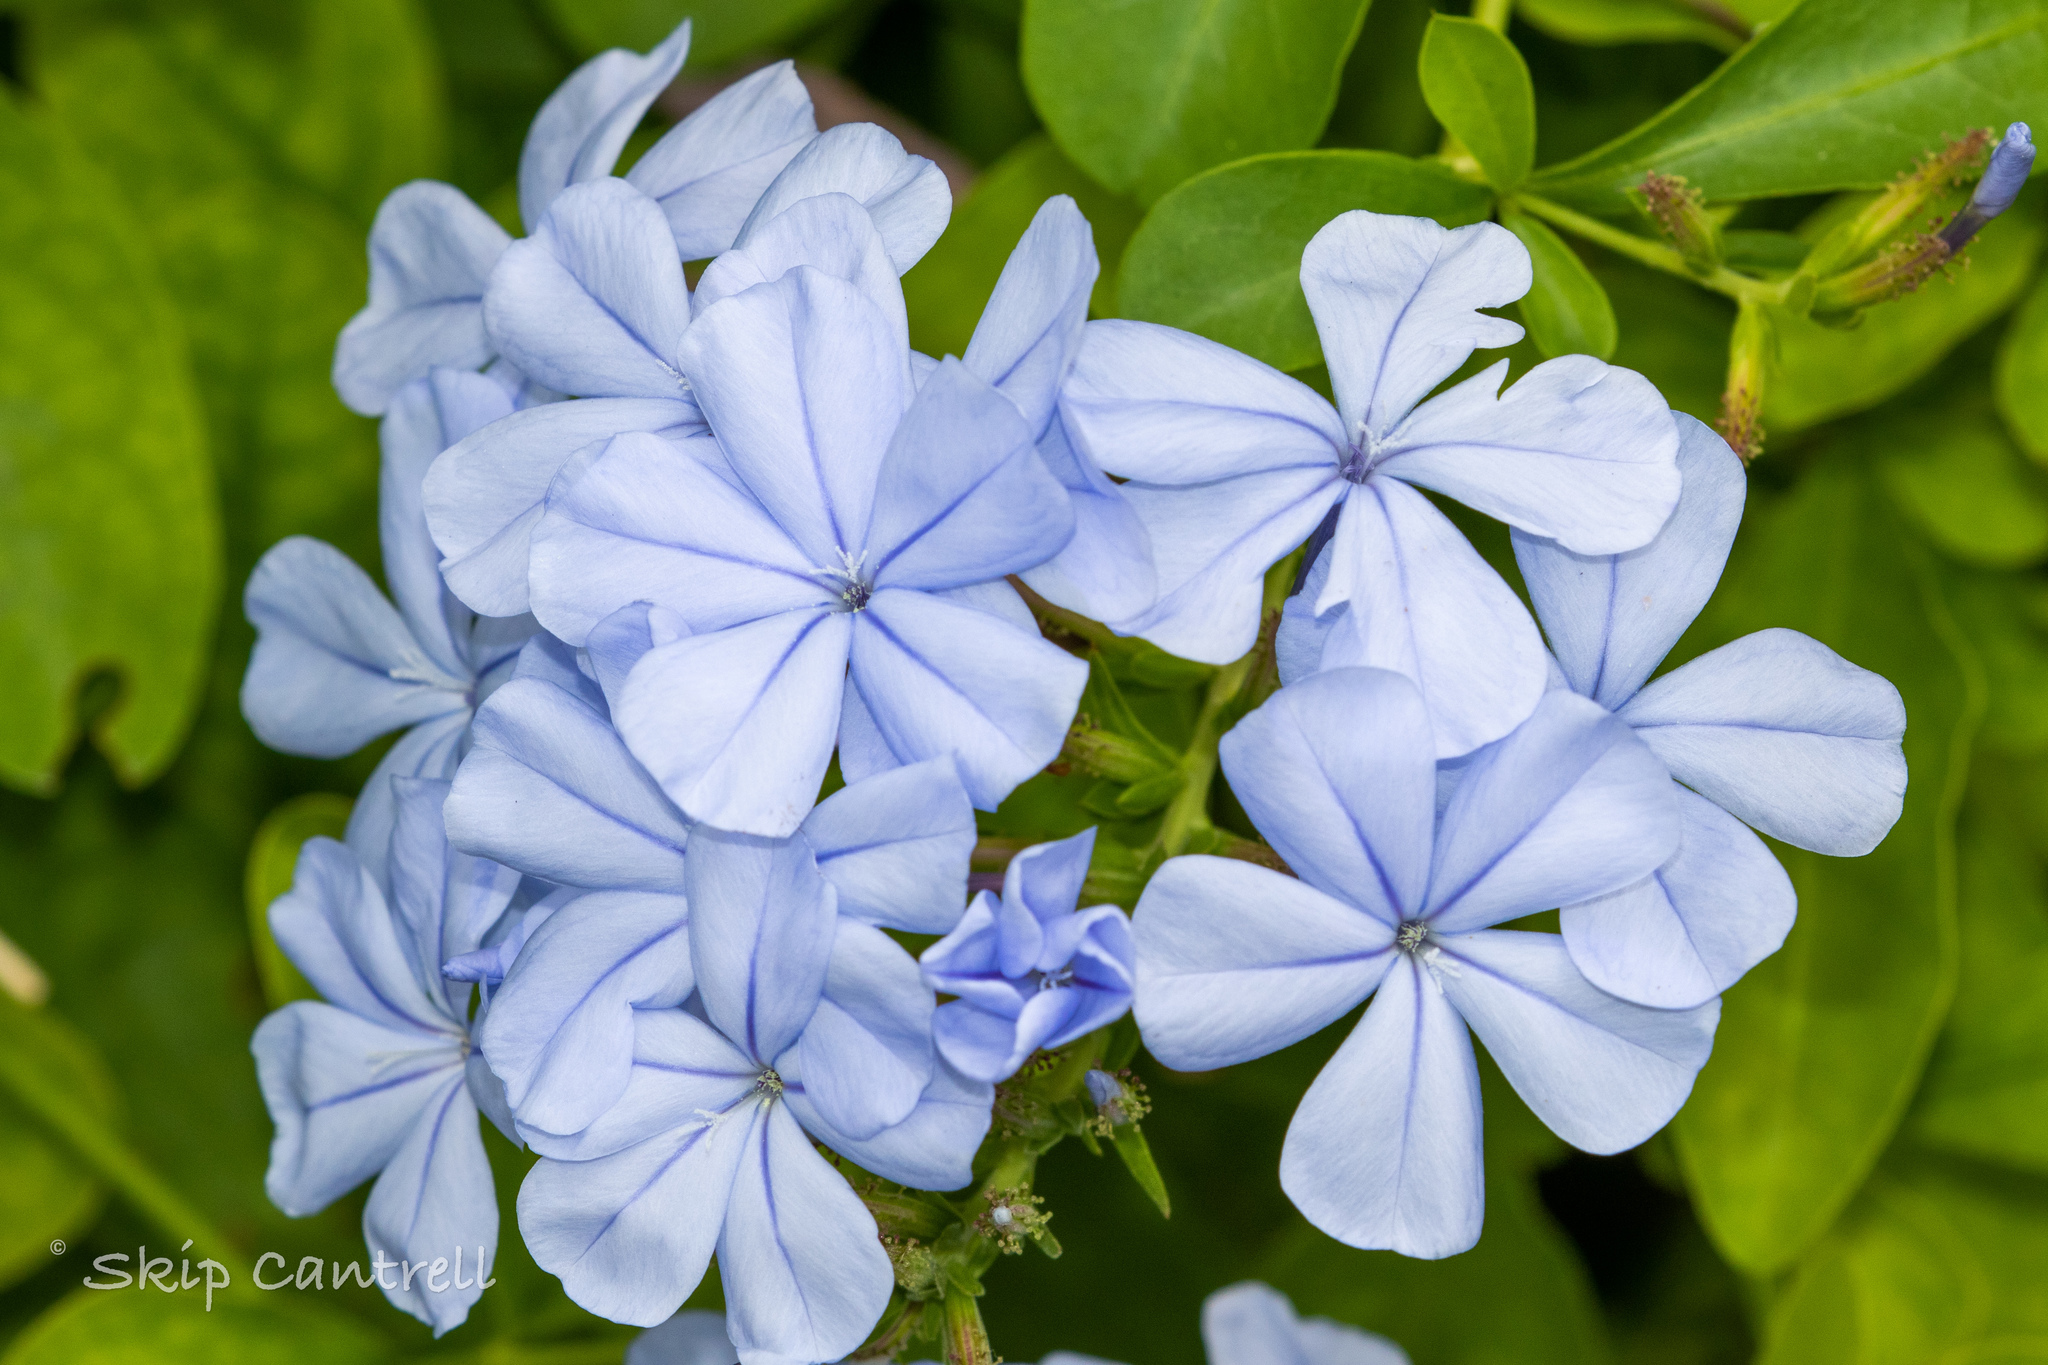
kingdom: Plantae
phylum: Tracheophyta
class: Magnoliopsida
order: Caryophyllales
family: Plumbaginaceae
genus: Plumbago
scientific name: Plumbago auriculata
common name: Cape leadwort
